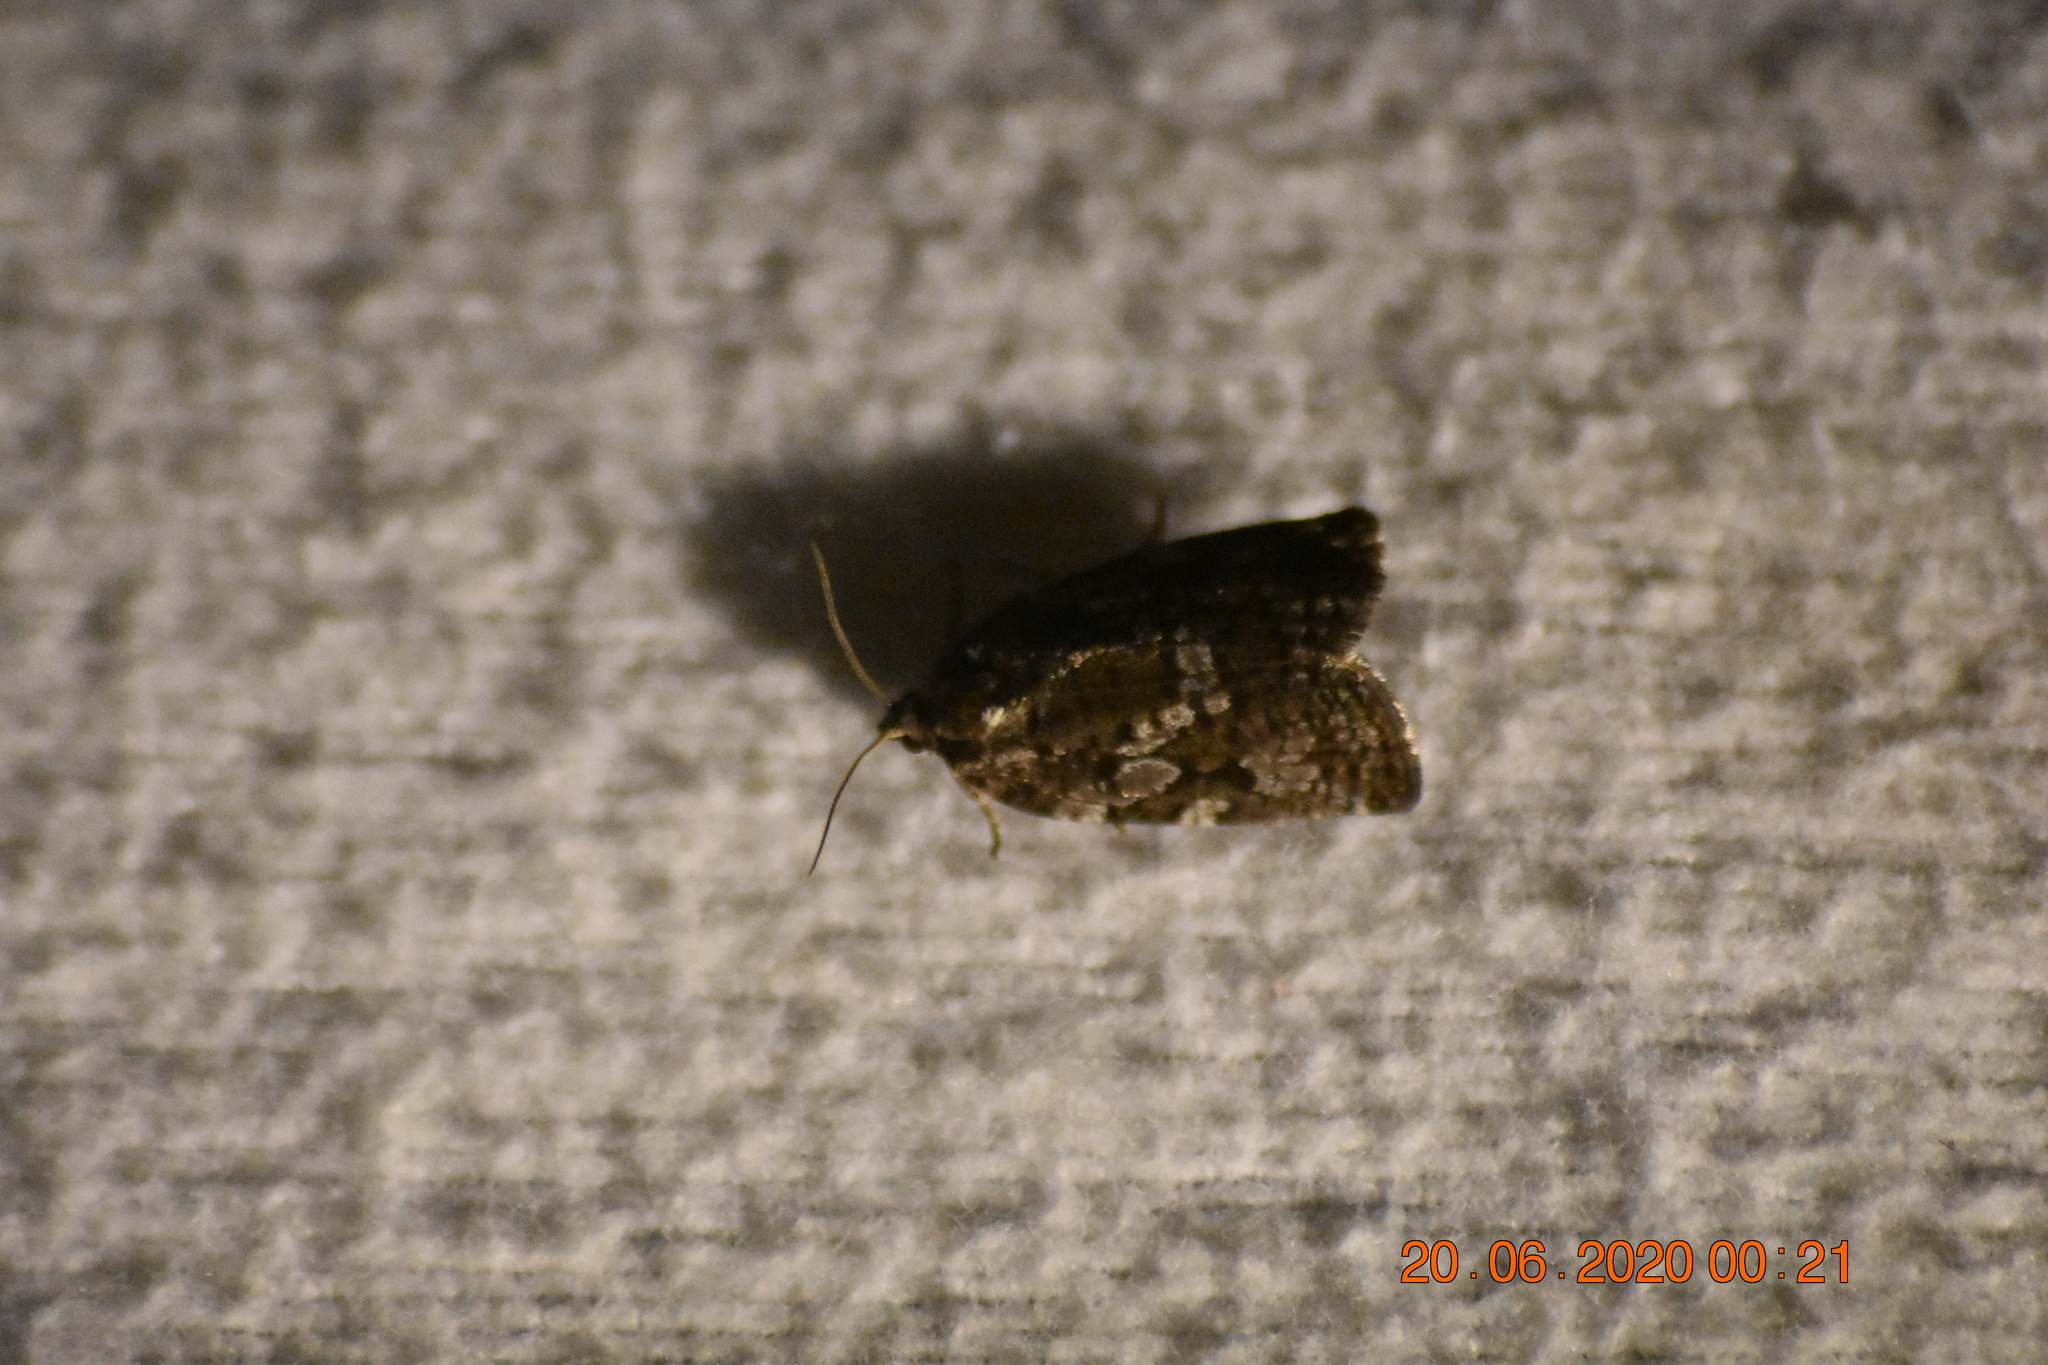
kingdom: Animalia
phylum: Arthropoda
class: Insecta
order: Lepidoptera
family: Tortricidae
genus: Choristoneura
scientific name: Choristoneura fumiferana
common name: Spruce budworm
